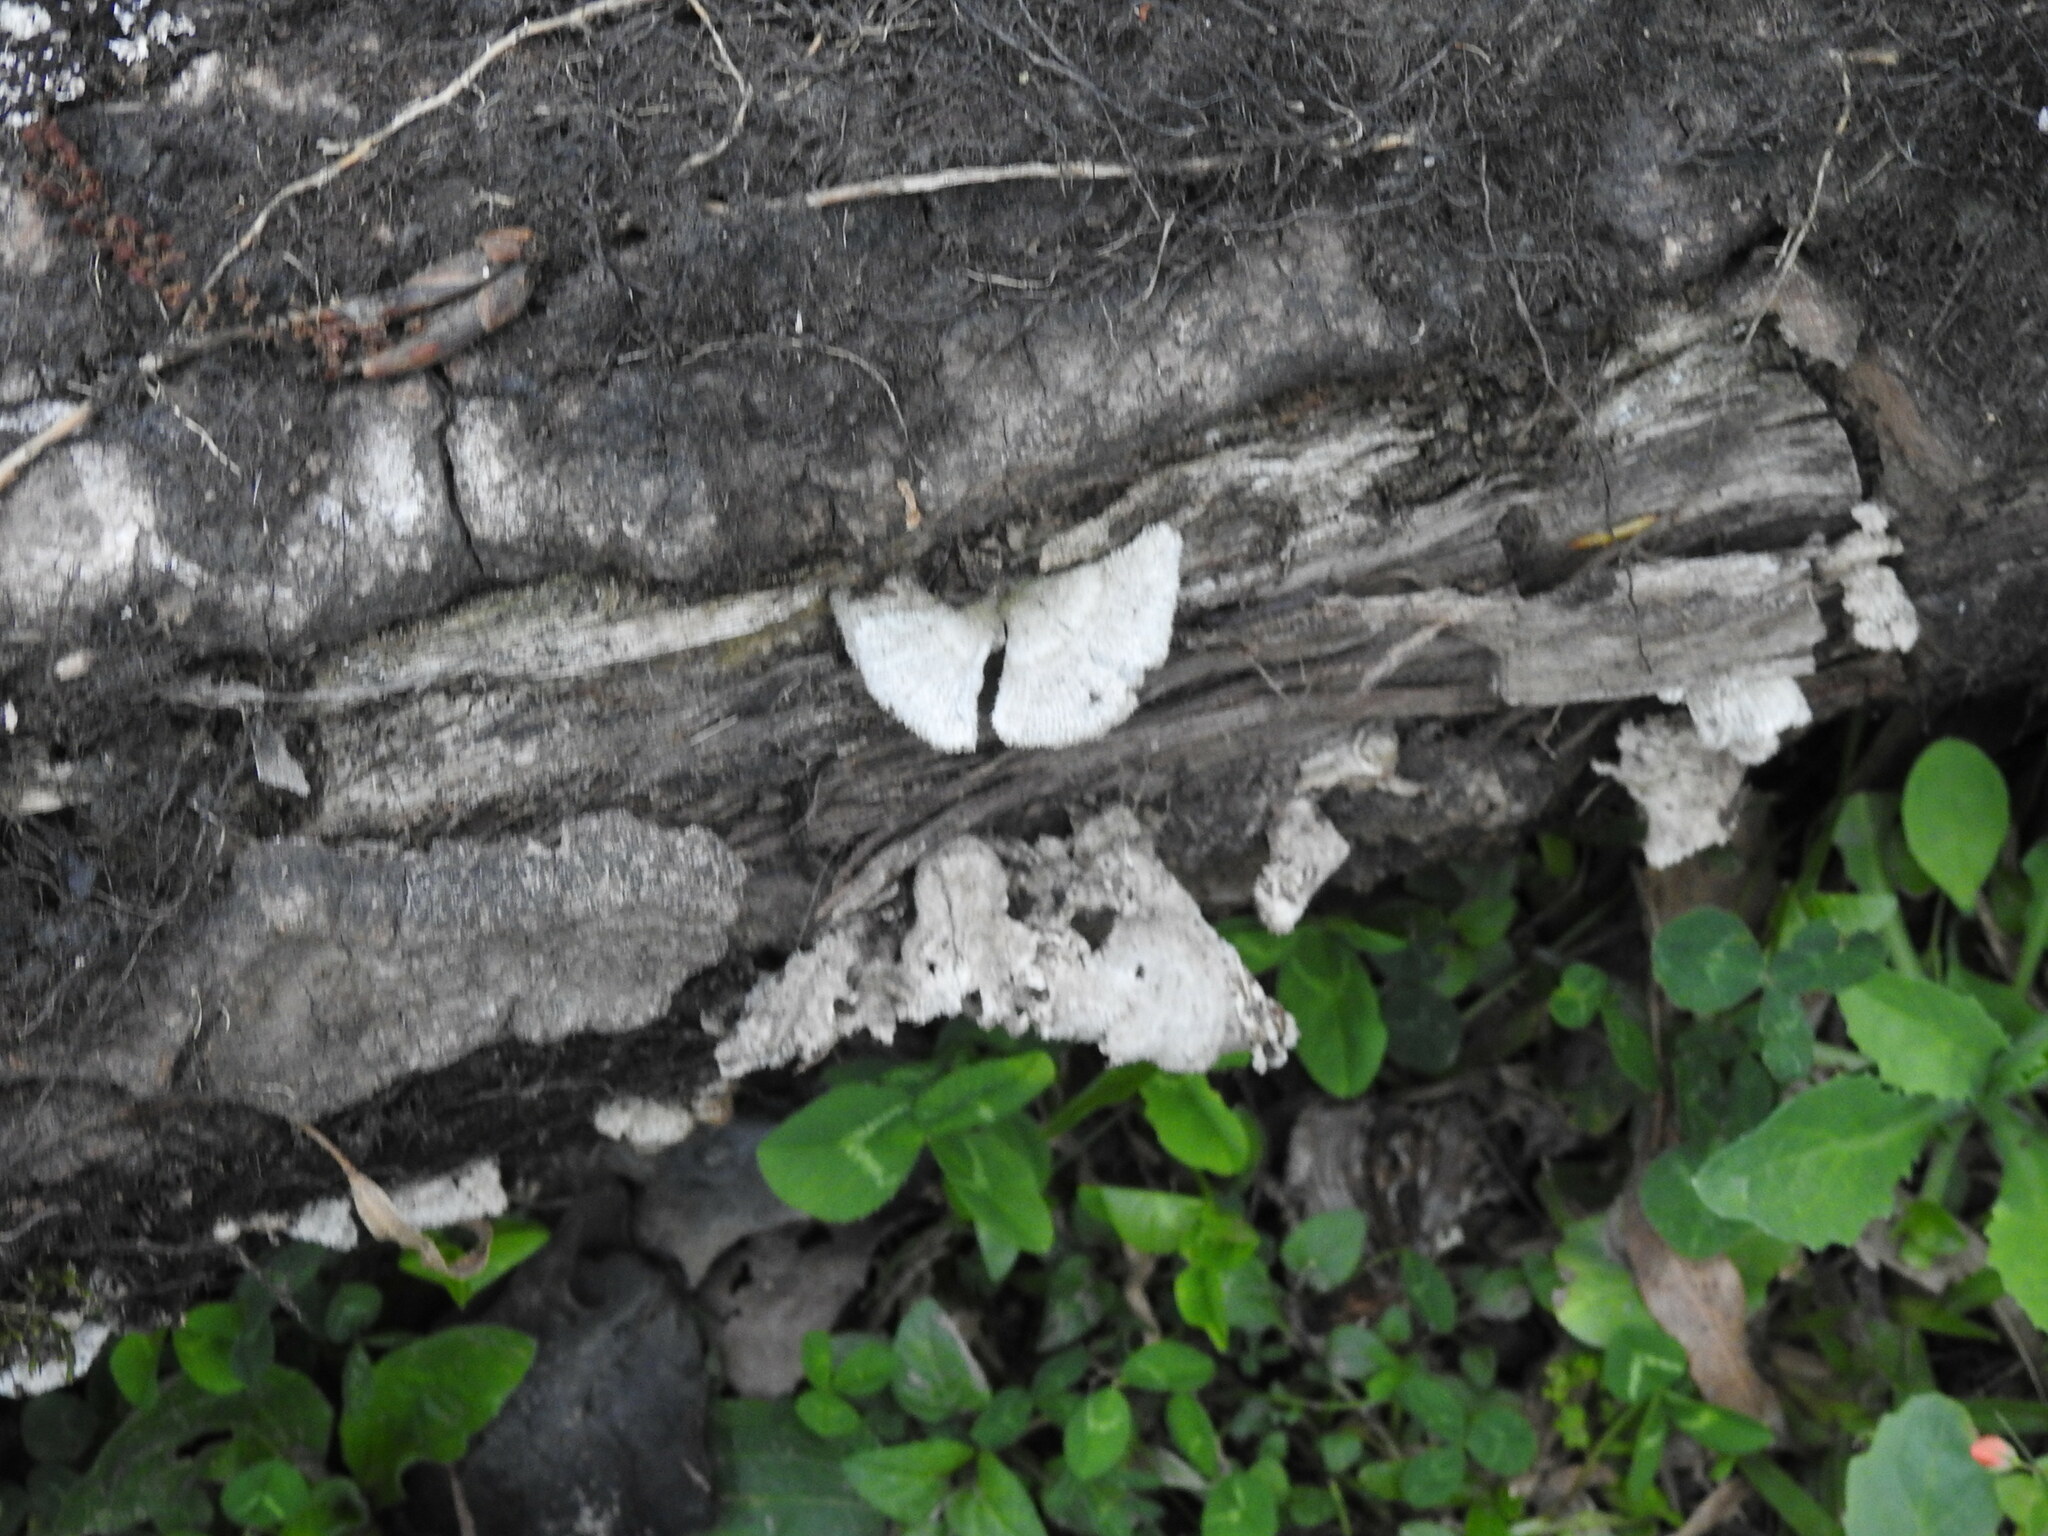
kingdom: Fungi
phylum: Basidiomycota
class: Agaricomycetes
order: Agaricales
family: Schizophyllaceae
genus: Schizophyllum
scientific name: Schizophyllum commune
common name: Common porecrust
